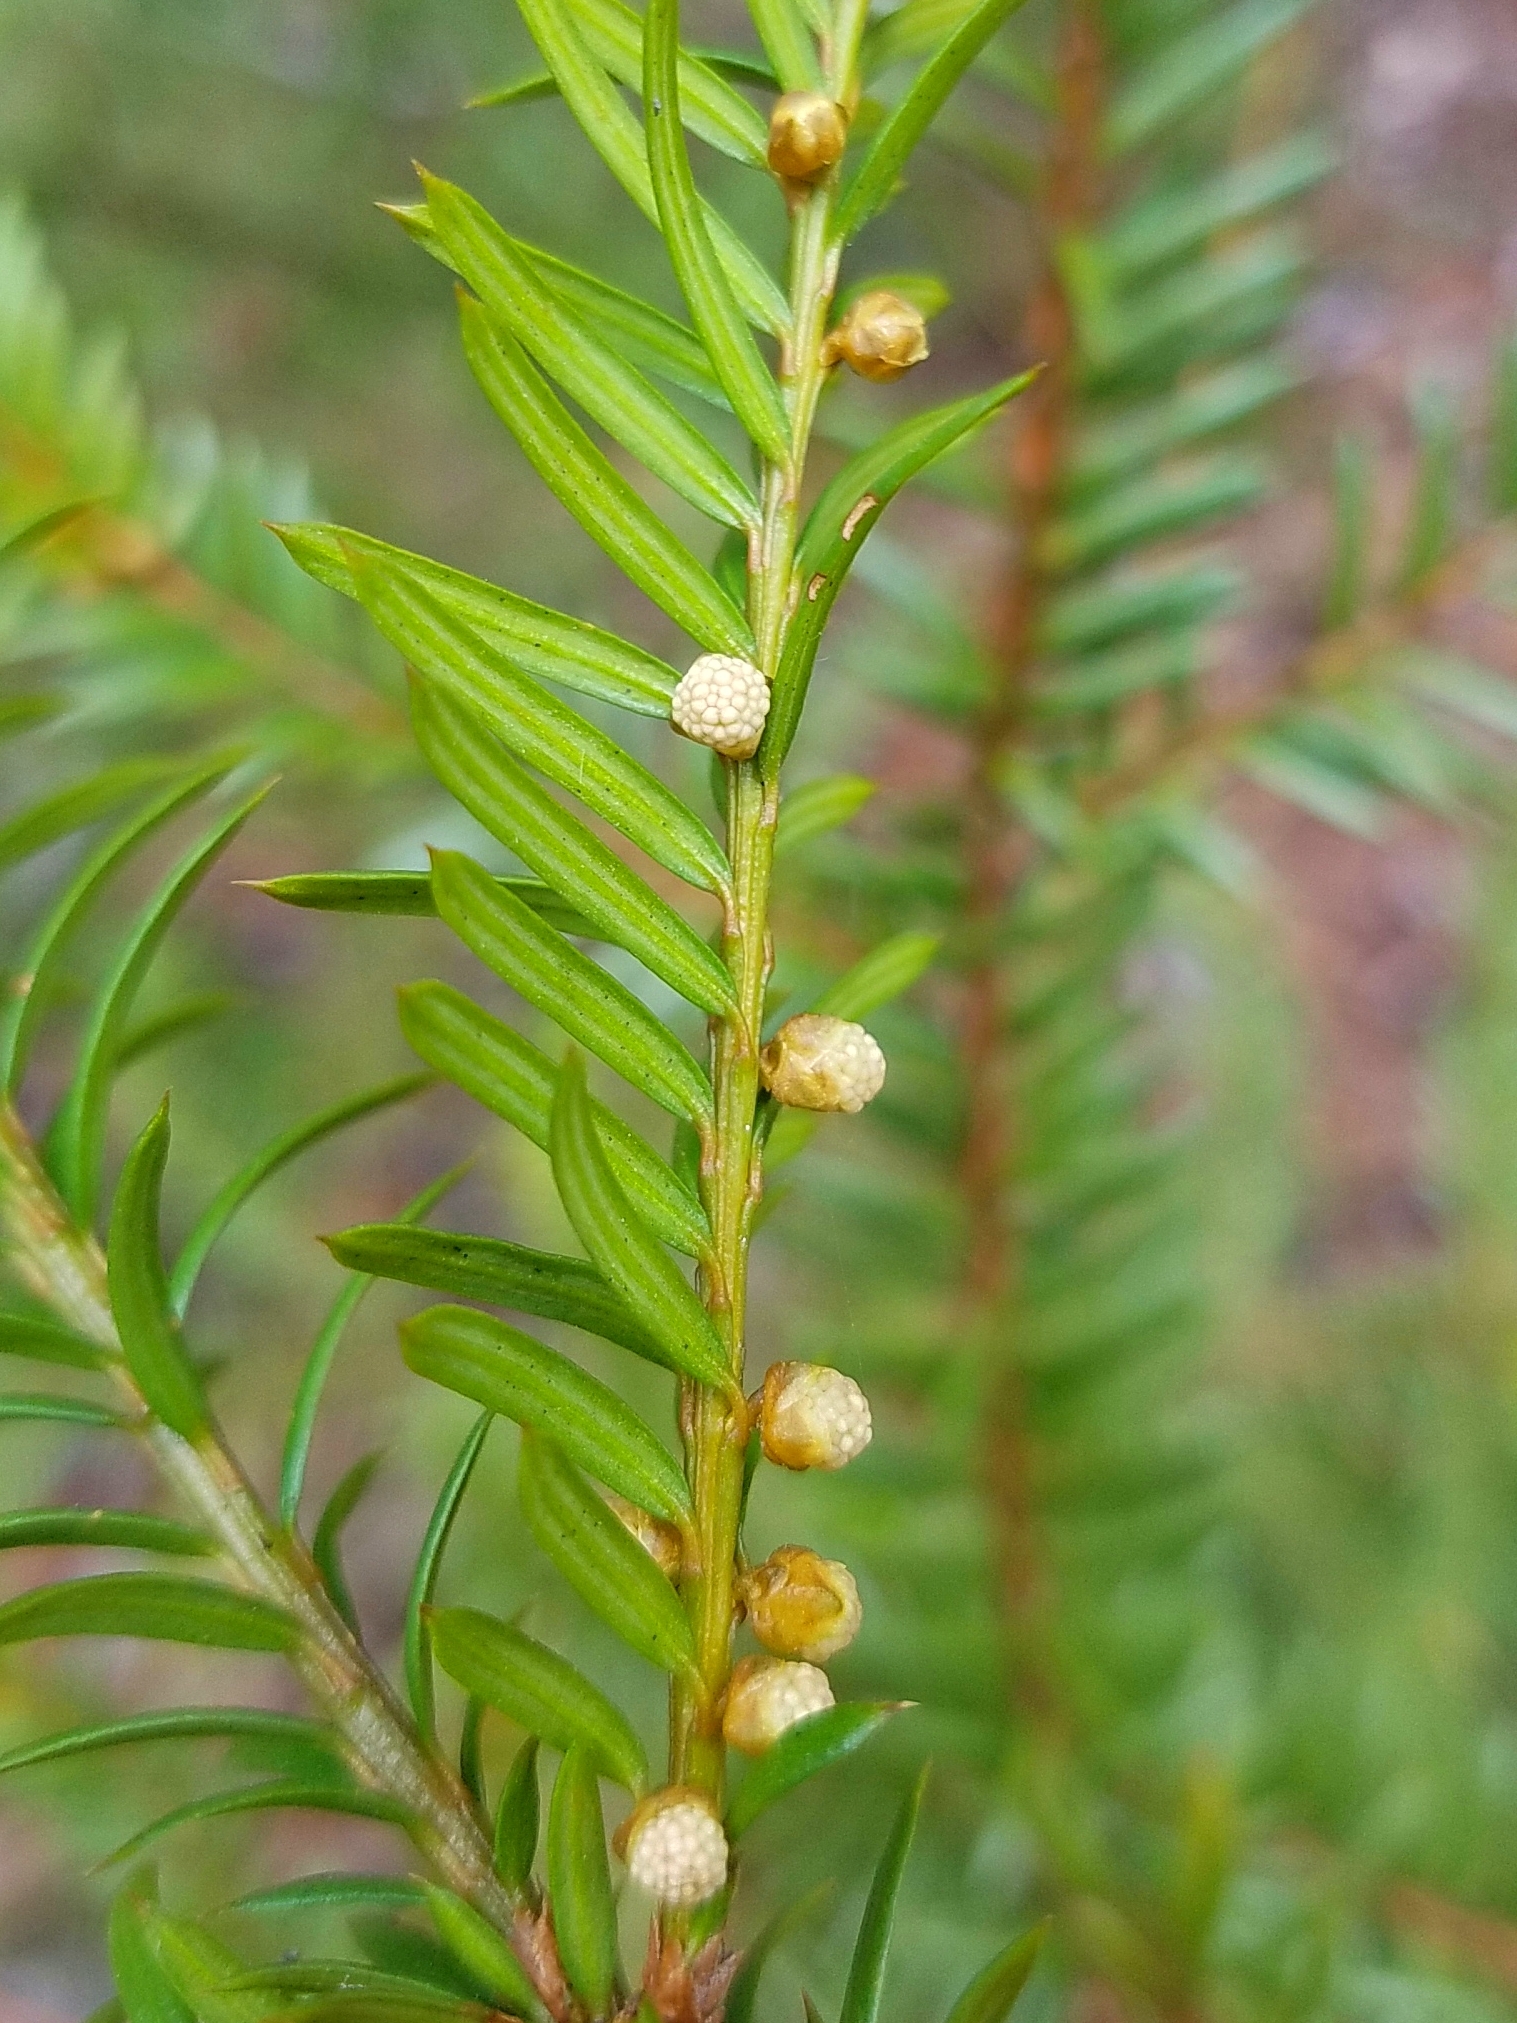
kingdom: Plantae
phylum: Tracheophyta
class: Pinopsida
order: Pinales
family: Taxaceae
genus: Taxus
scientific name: Taxus canadensis
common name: American yew
